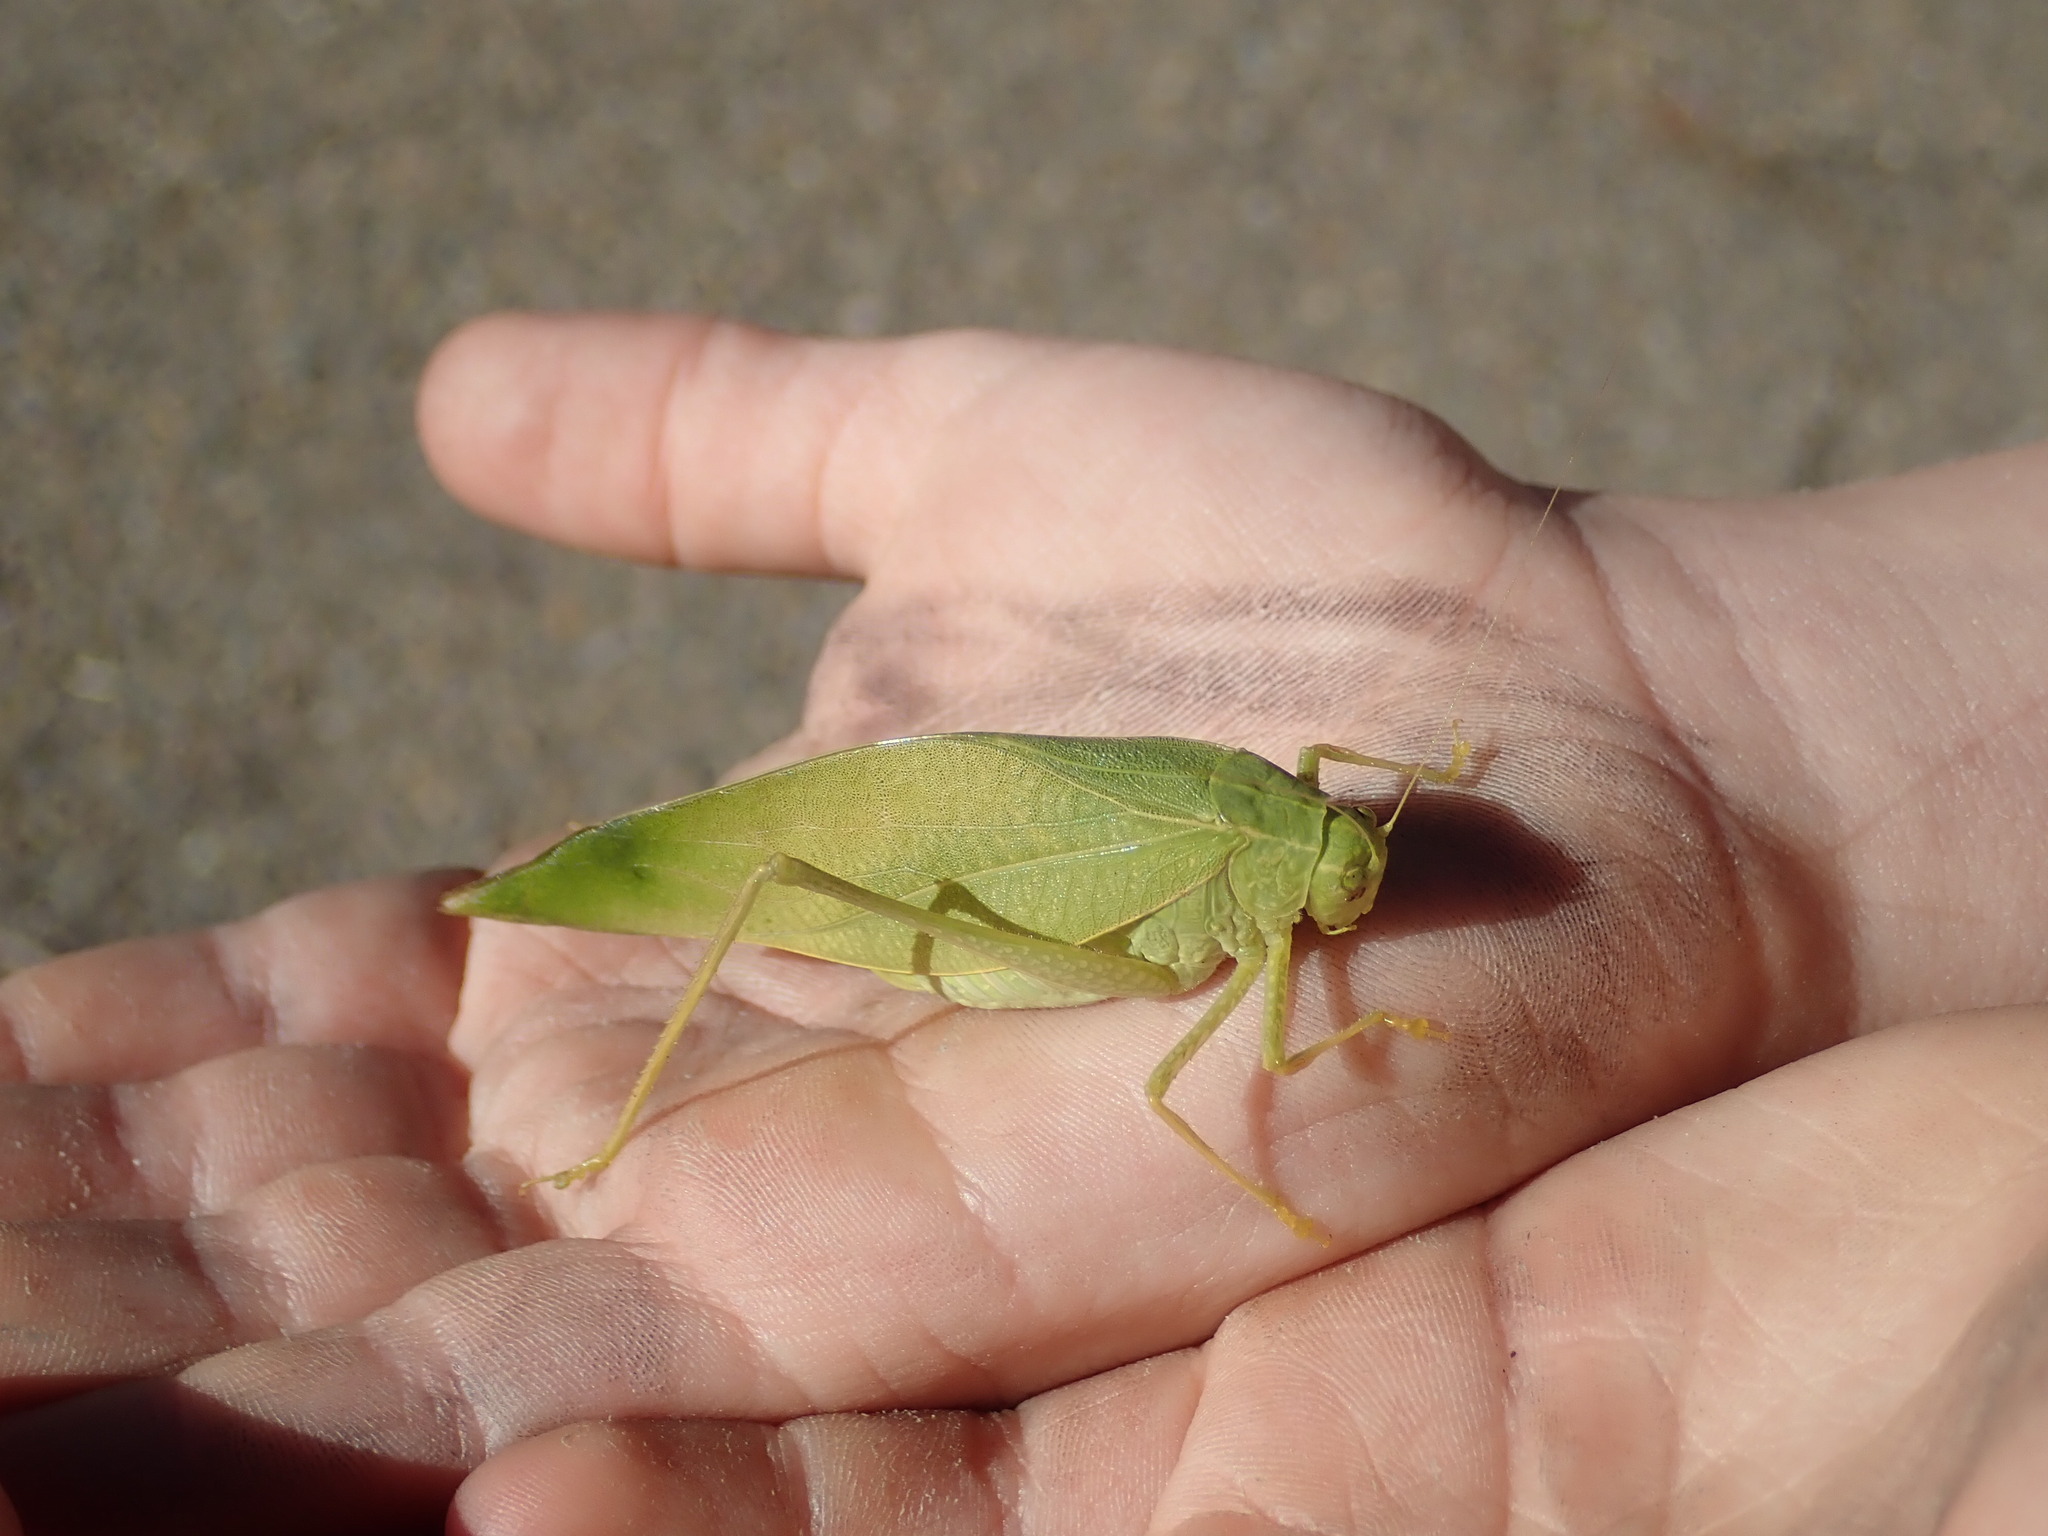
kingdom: Animalia
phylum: Arthropoda
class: Insecta
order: Orthoptera
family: Tettigoniidae
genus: Microcentrum
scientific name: Microcentrum rhombifolium
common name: Broad-winged katydid
